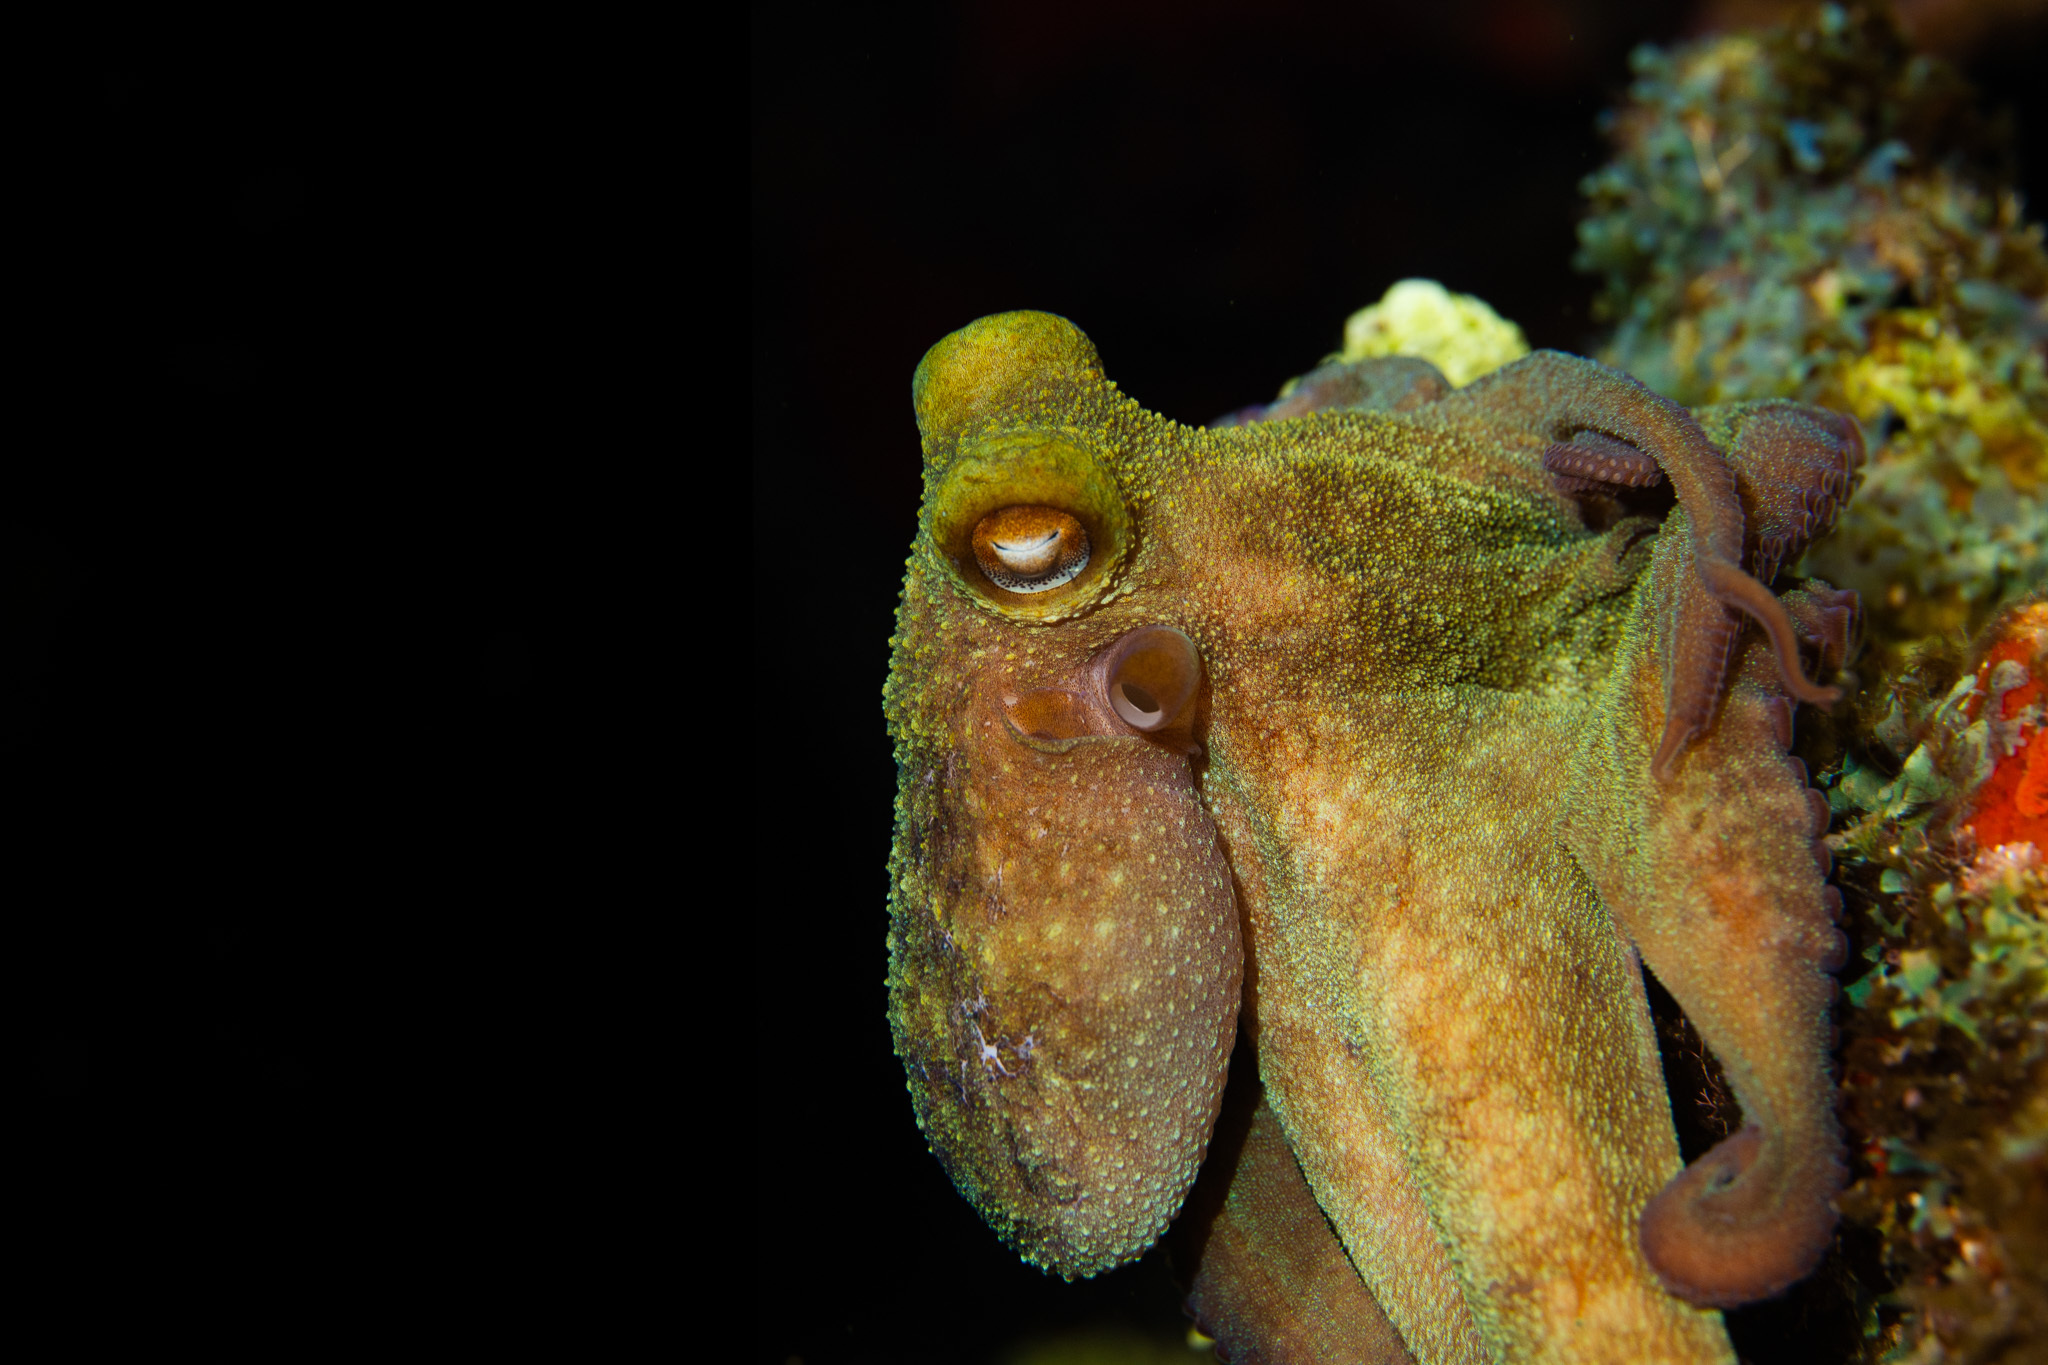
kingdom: Animalia
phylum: Mollusca
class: Cephalopoda
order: Octopoda
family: Octopodidae
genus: Octopus
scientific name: Octopus briareus
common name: Caribbean reef octopus
